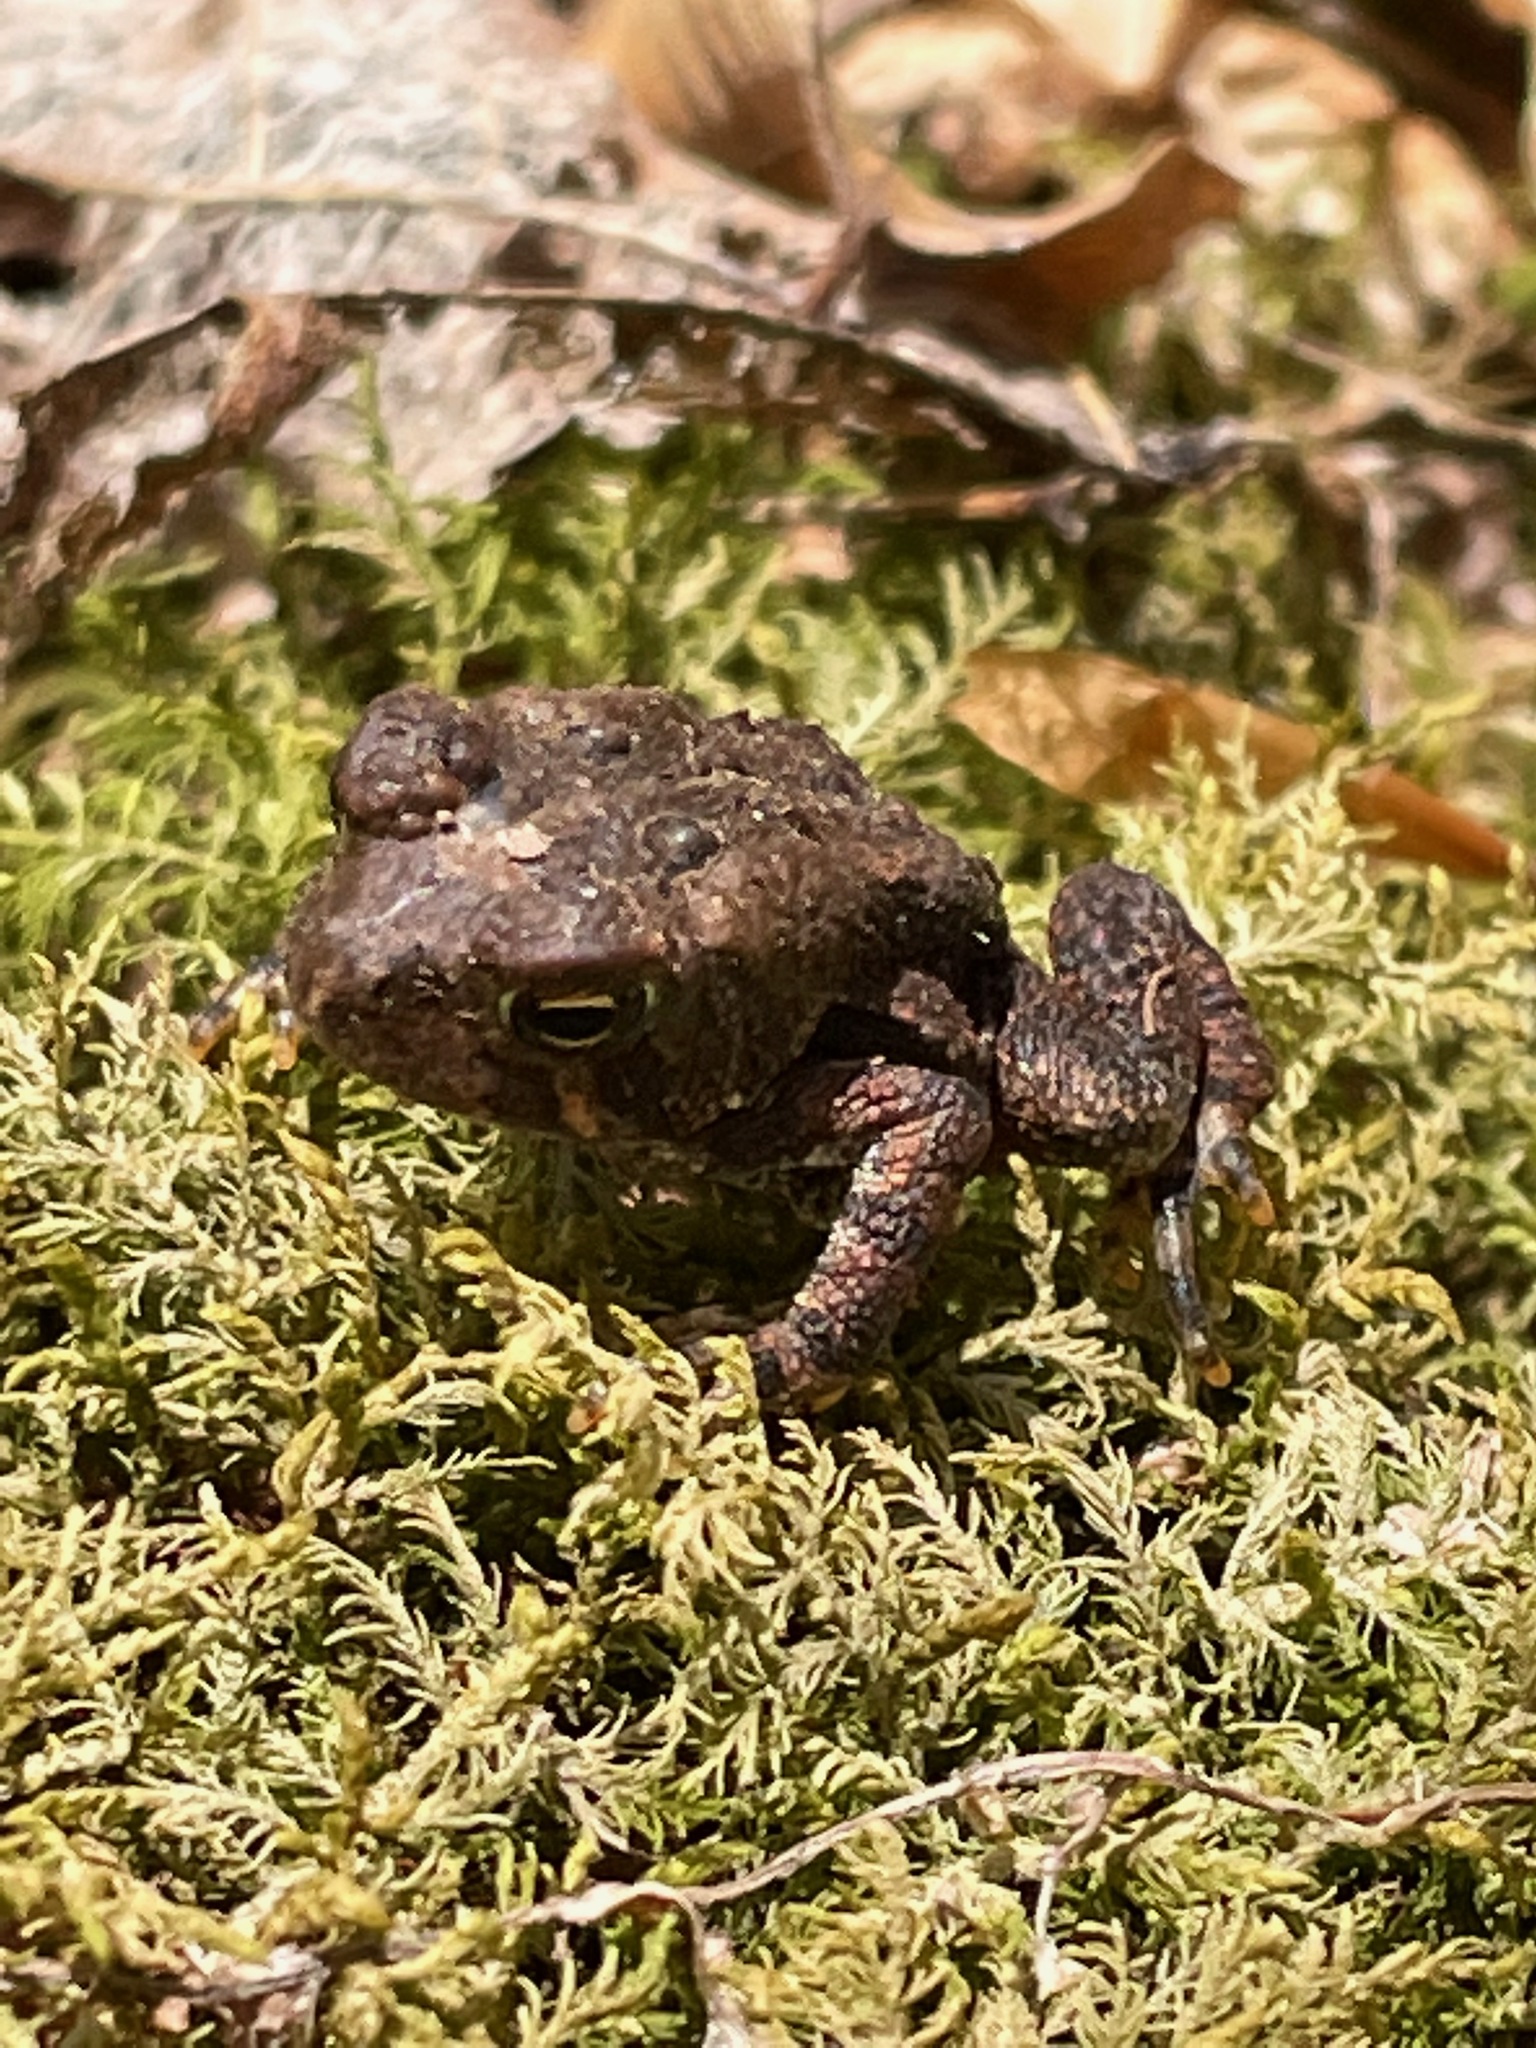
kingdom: Animalia
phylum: Chordata
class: Amphibia
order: Anura
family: Bufonidae
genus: Anaxyrus
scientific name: Anaxyrus americanus
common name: American toad
